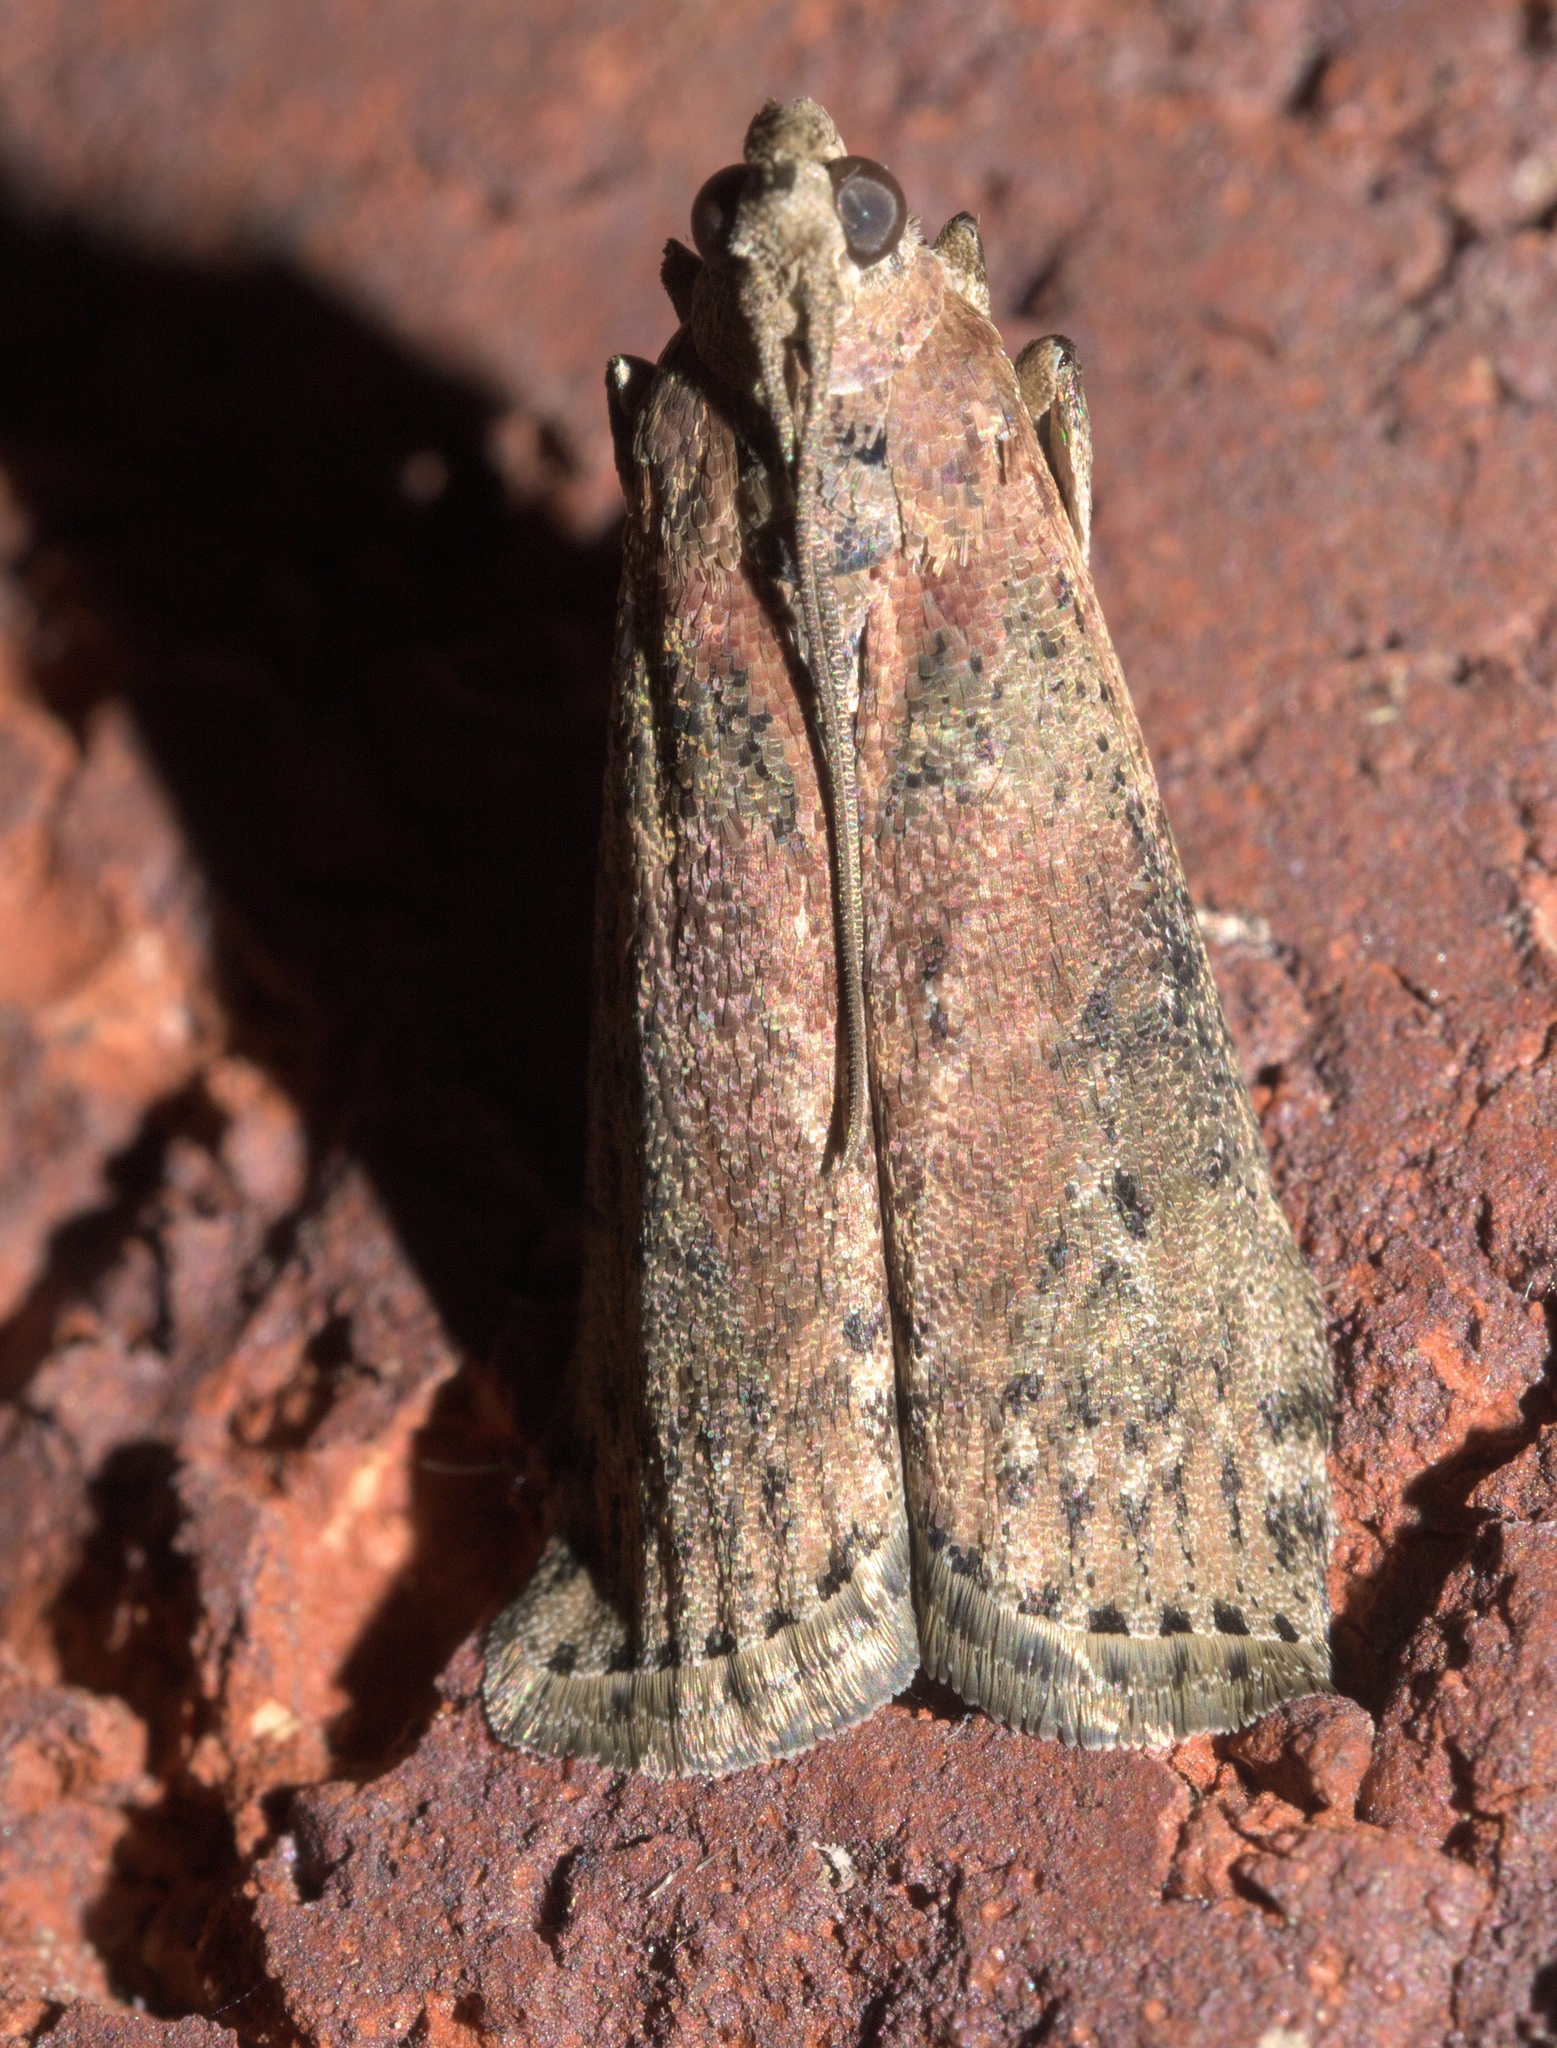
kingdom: Animalia
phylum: Arthropoda
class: Insecta
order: Lepidoptera
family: Pyralidae
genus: Sciota
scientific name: Sciota celtidella
